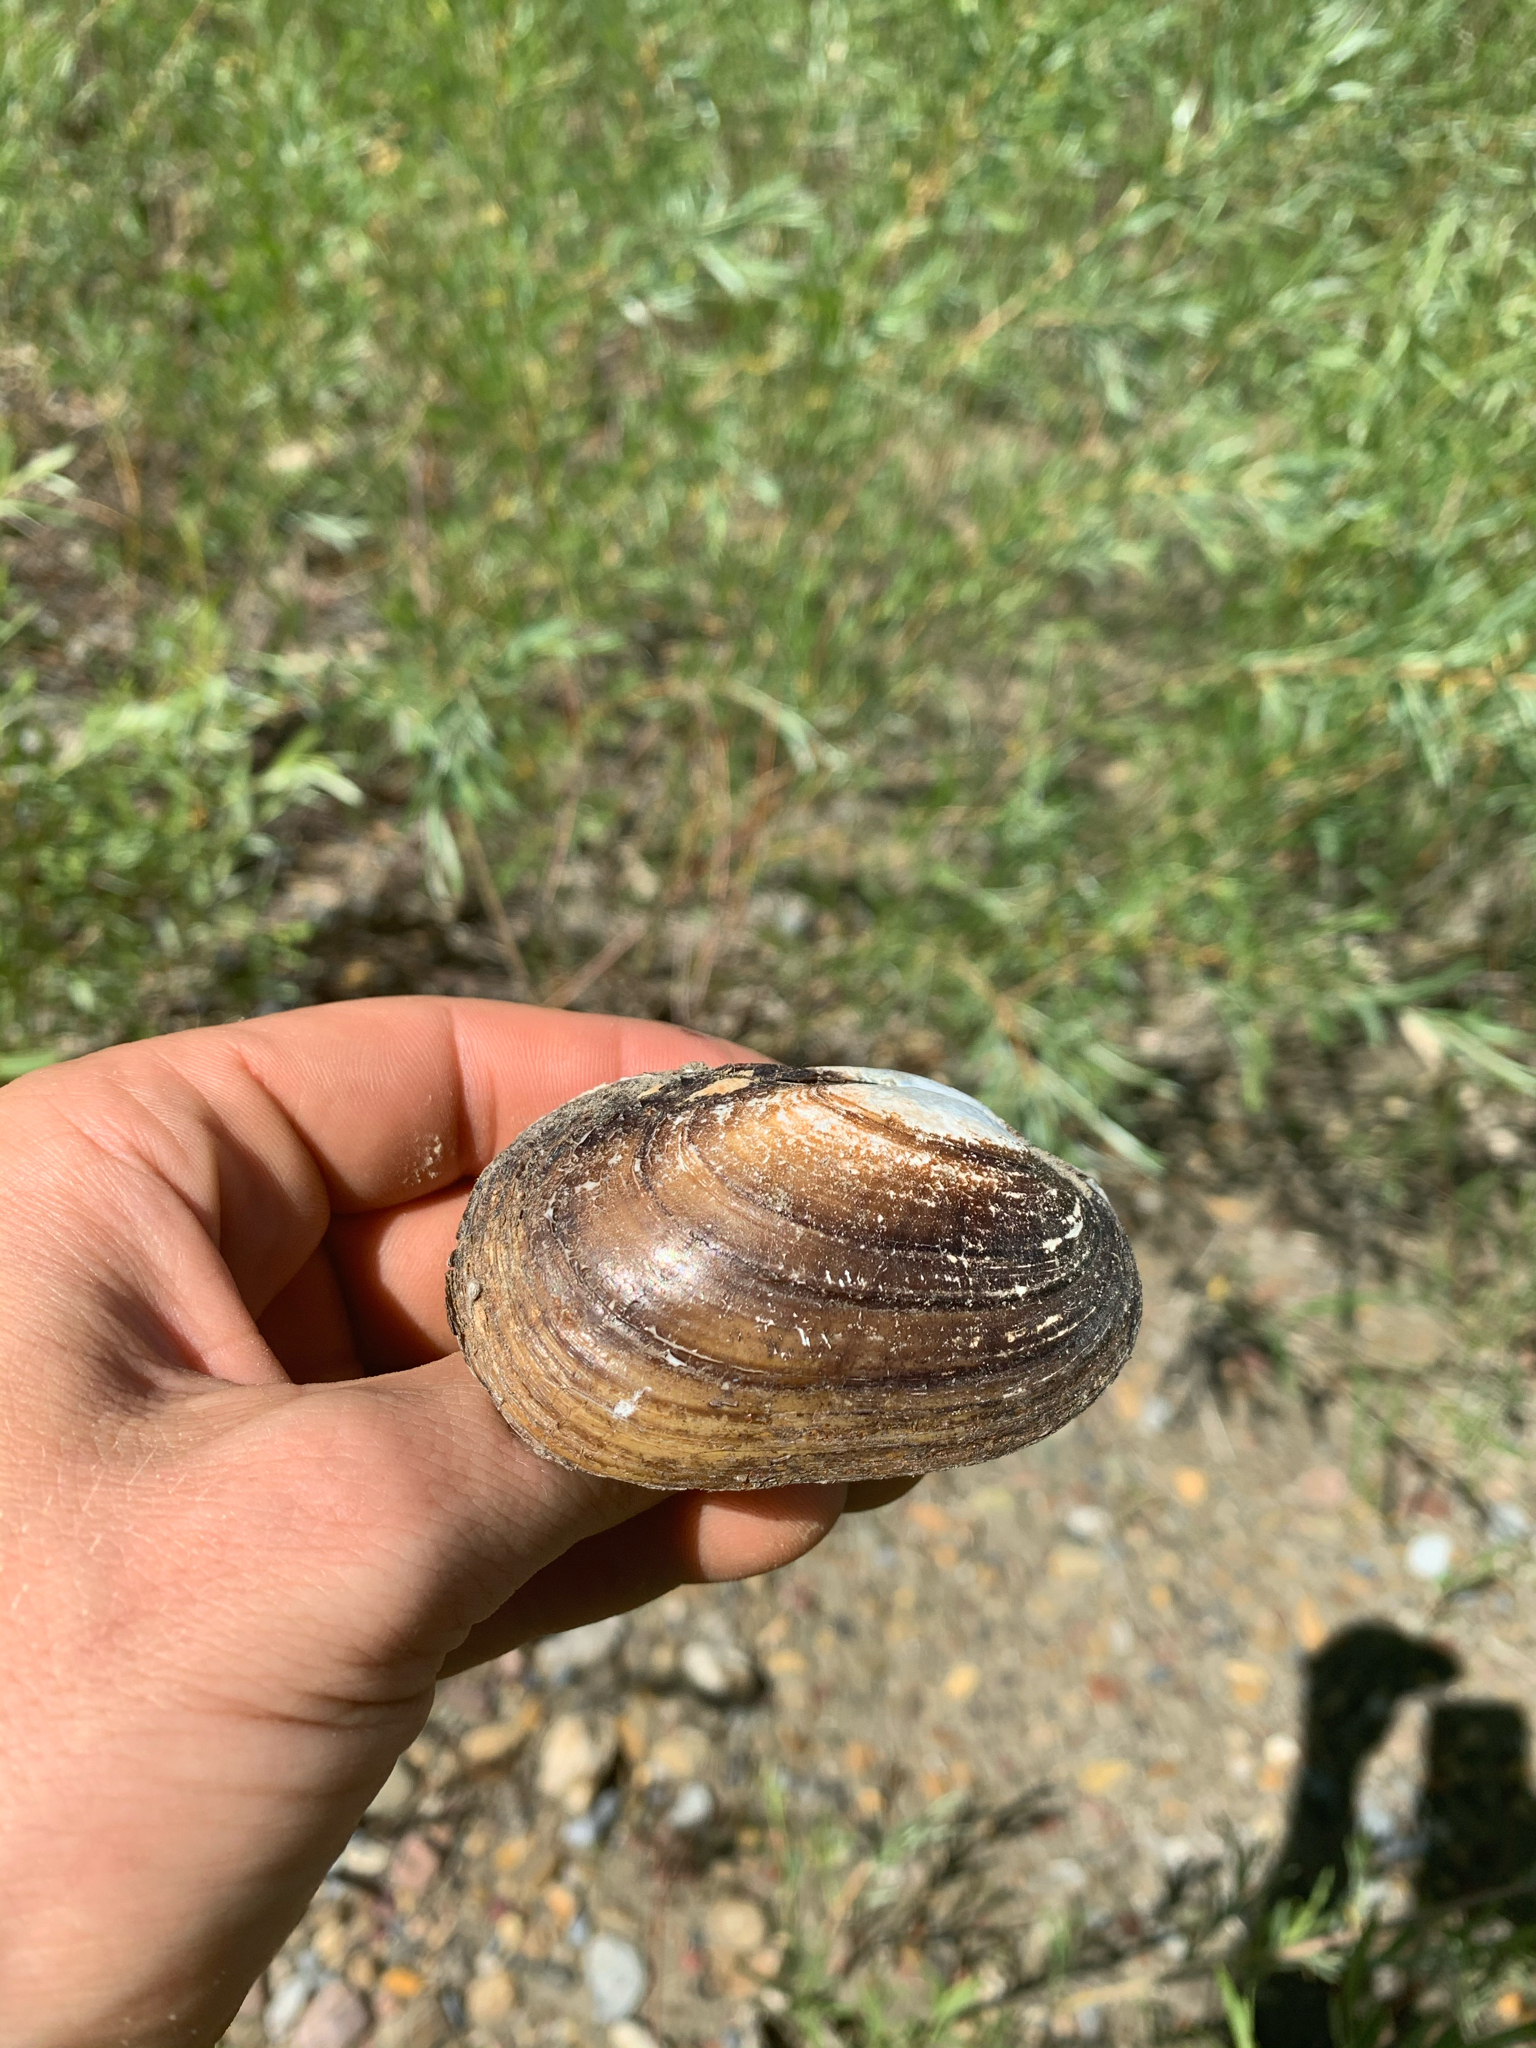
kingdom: Animalia
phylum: Mollusca
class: Bivalvia
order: Unionida
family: Unionidae
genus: Lampsilis
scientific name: Lampsilis siliquoidea
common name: Fatmucket
